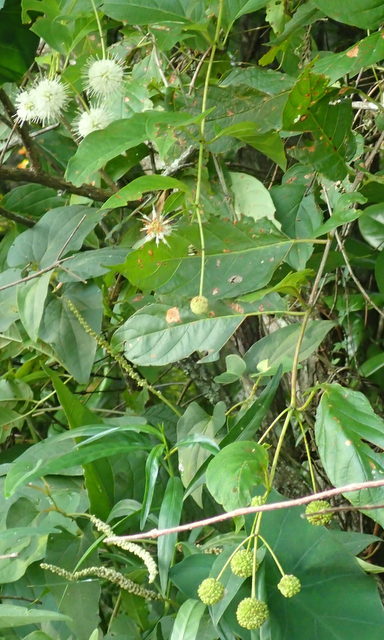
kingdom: Plantae
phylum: Tracheophyta
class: Magnoliopsida
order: Gentianales
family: Rubiaceae
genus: Cephalanthus
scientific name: Cephalanthus occidentalis
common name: Button-willow
